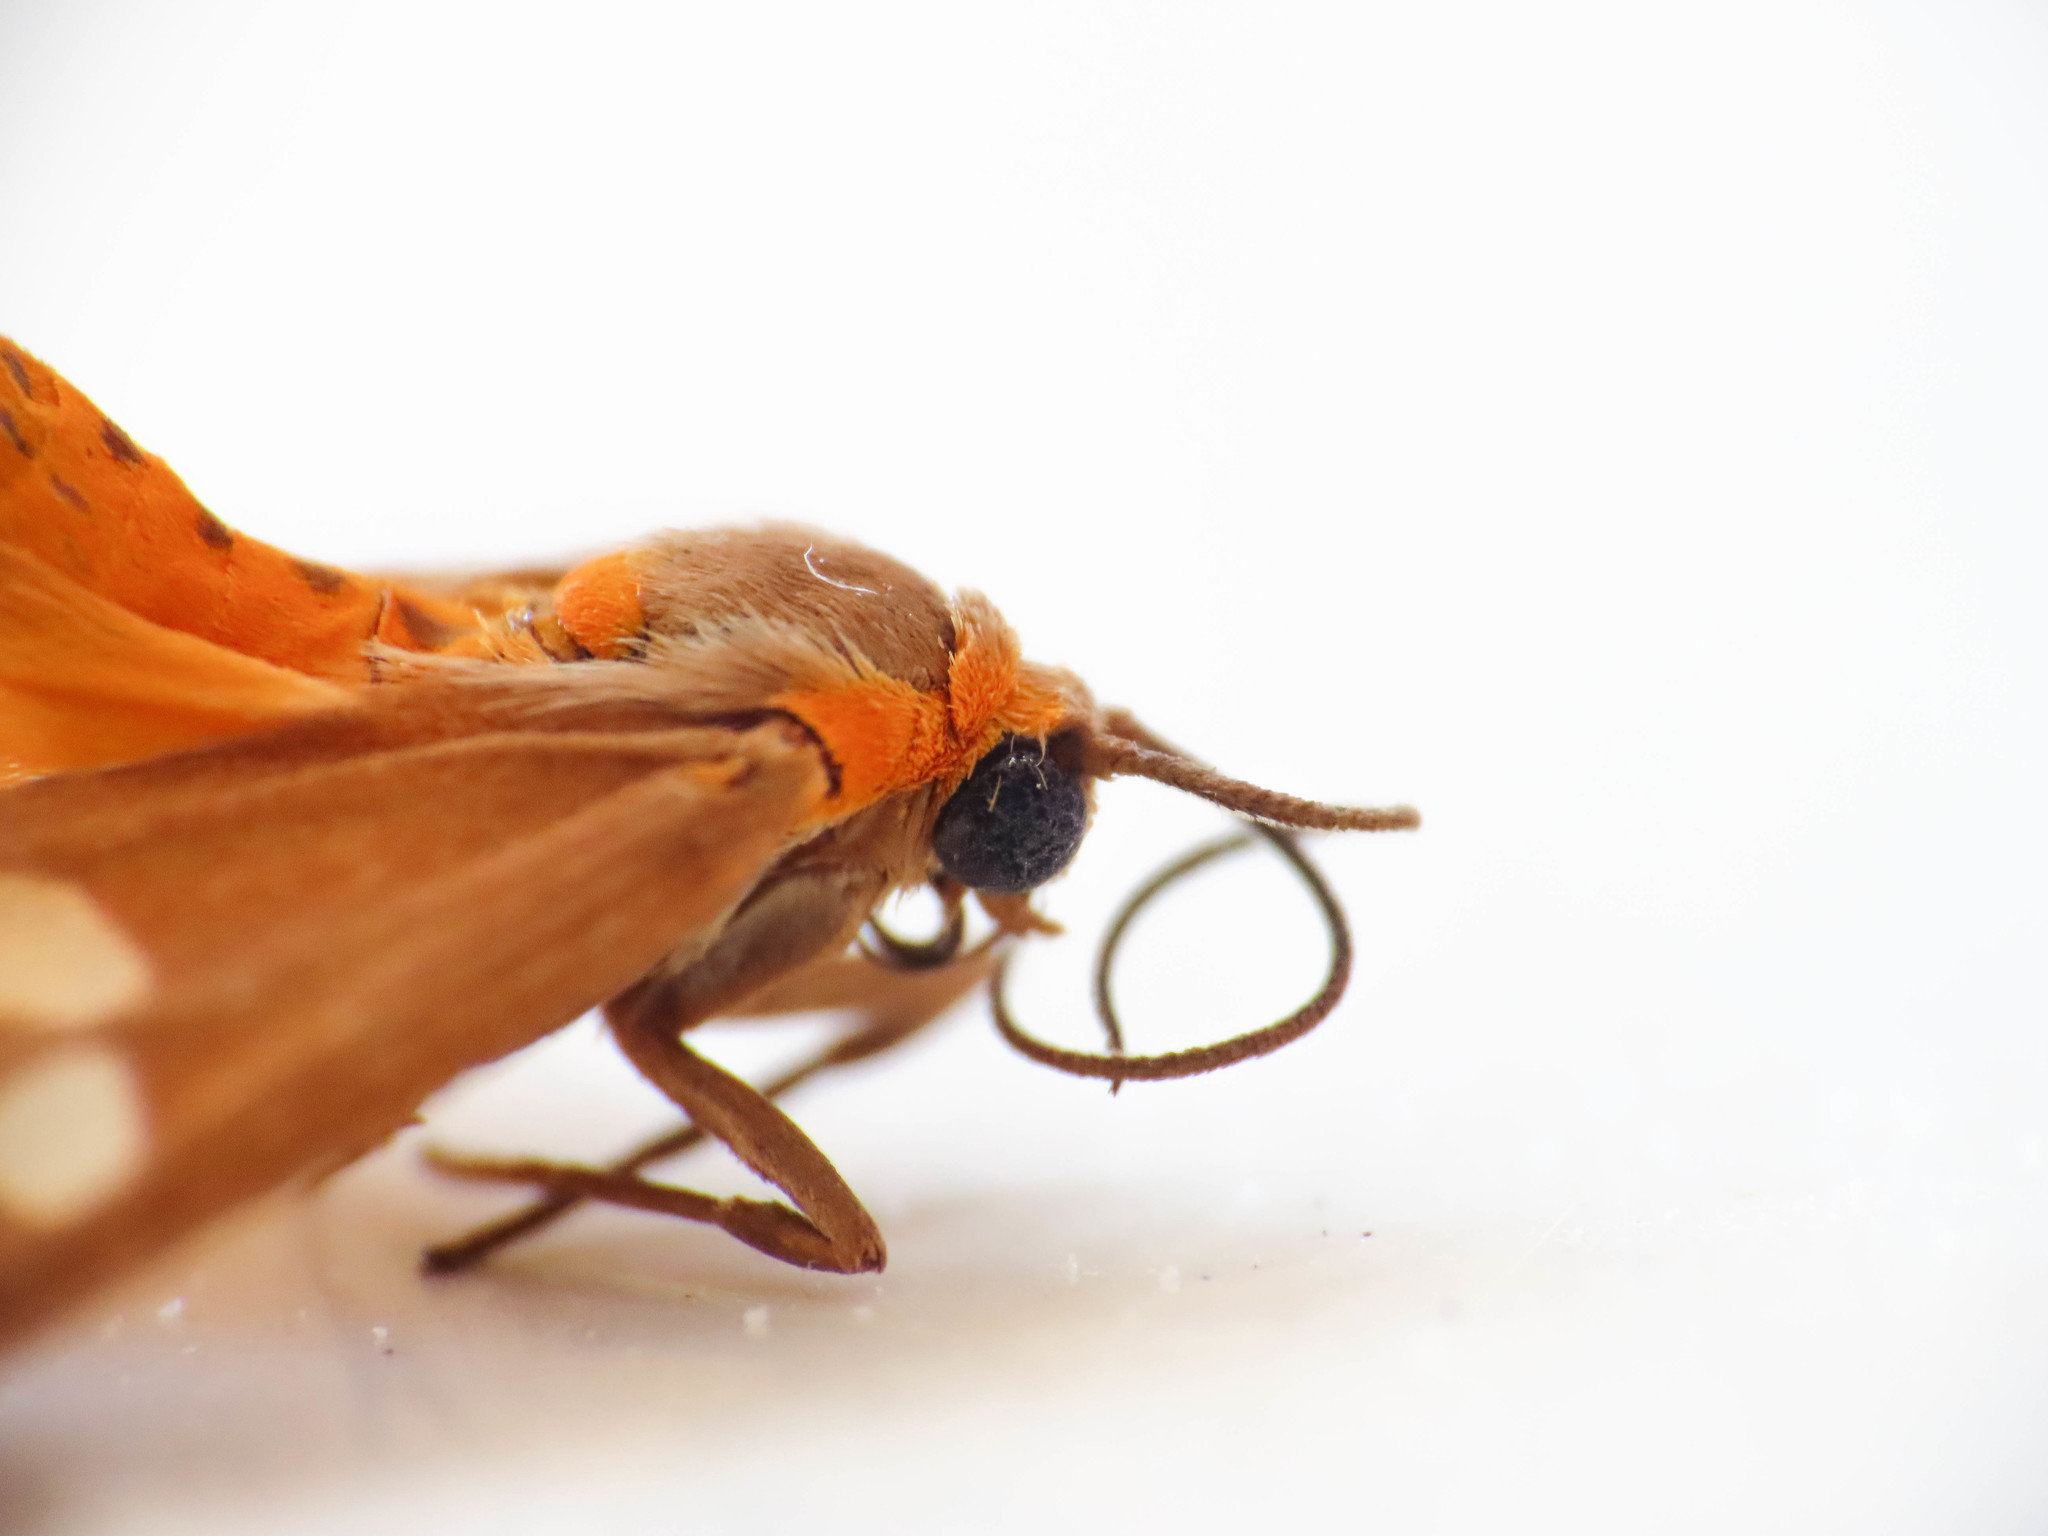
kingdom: Animalia
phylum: Arthropoda
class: Insecta
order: Lepidoptera
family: Erebidae
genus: Dysauxes
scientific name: Dysauxes punctata
